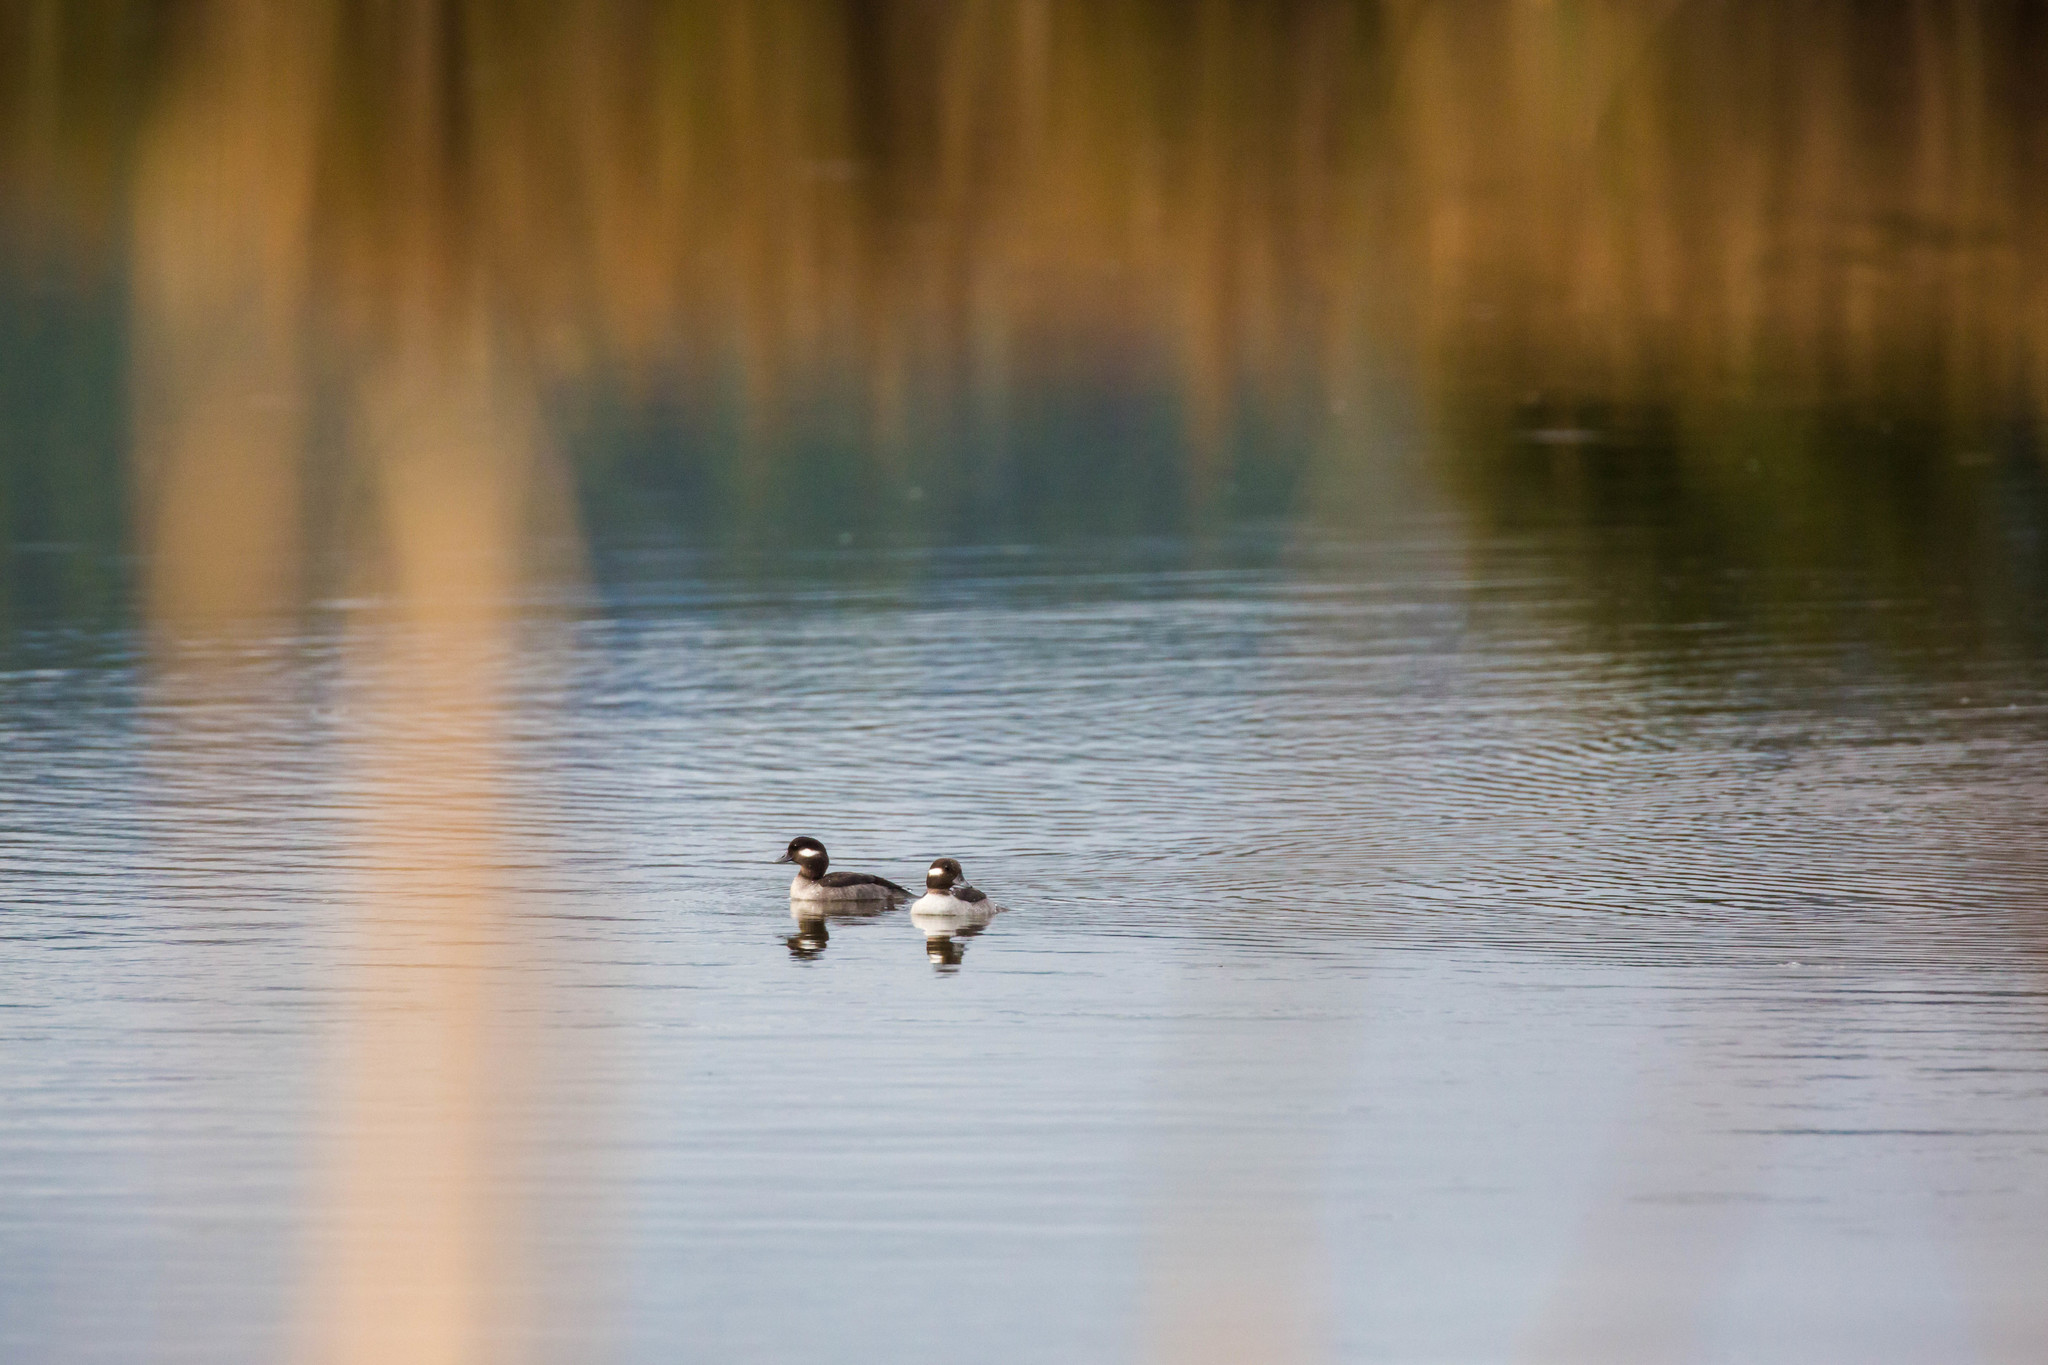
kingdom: Animalia
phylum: Chordata
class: Aves
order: Anseriformes
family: Anatidae
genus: Bucephala
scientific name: Bucephala albeola
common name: Bufflehead
